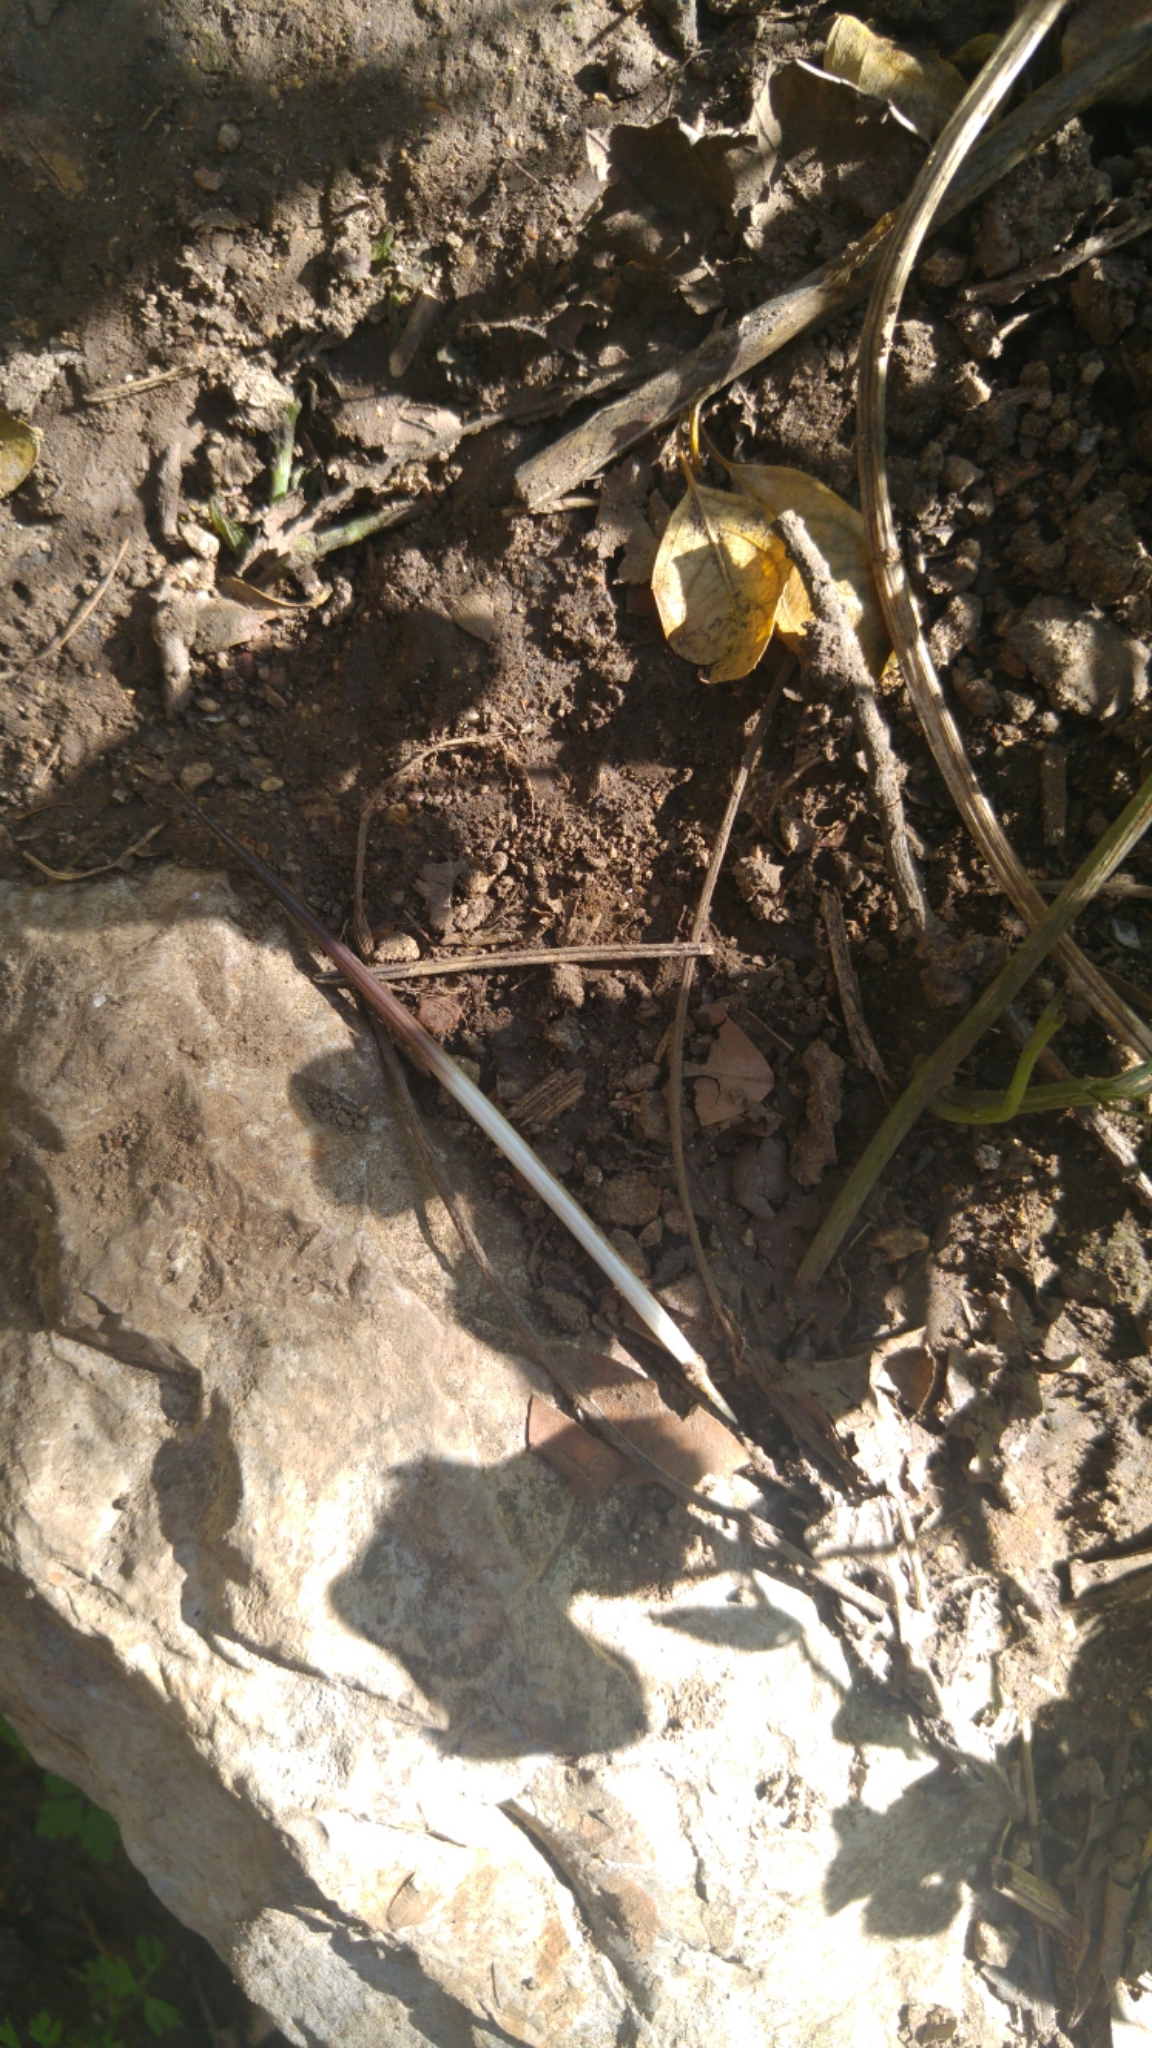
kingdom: Animalia
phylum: Chordata
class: Mammalia
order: Rodentia
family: Hystricidae
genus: Hystrix
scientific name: Hystrix indica
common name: Indian crested porcupine
